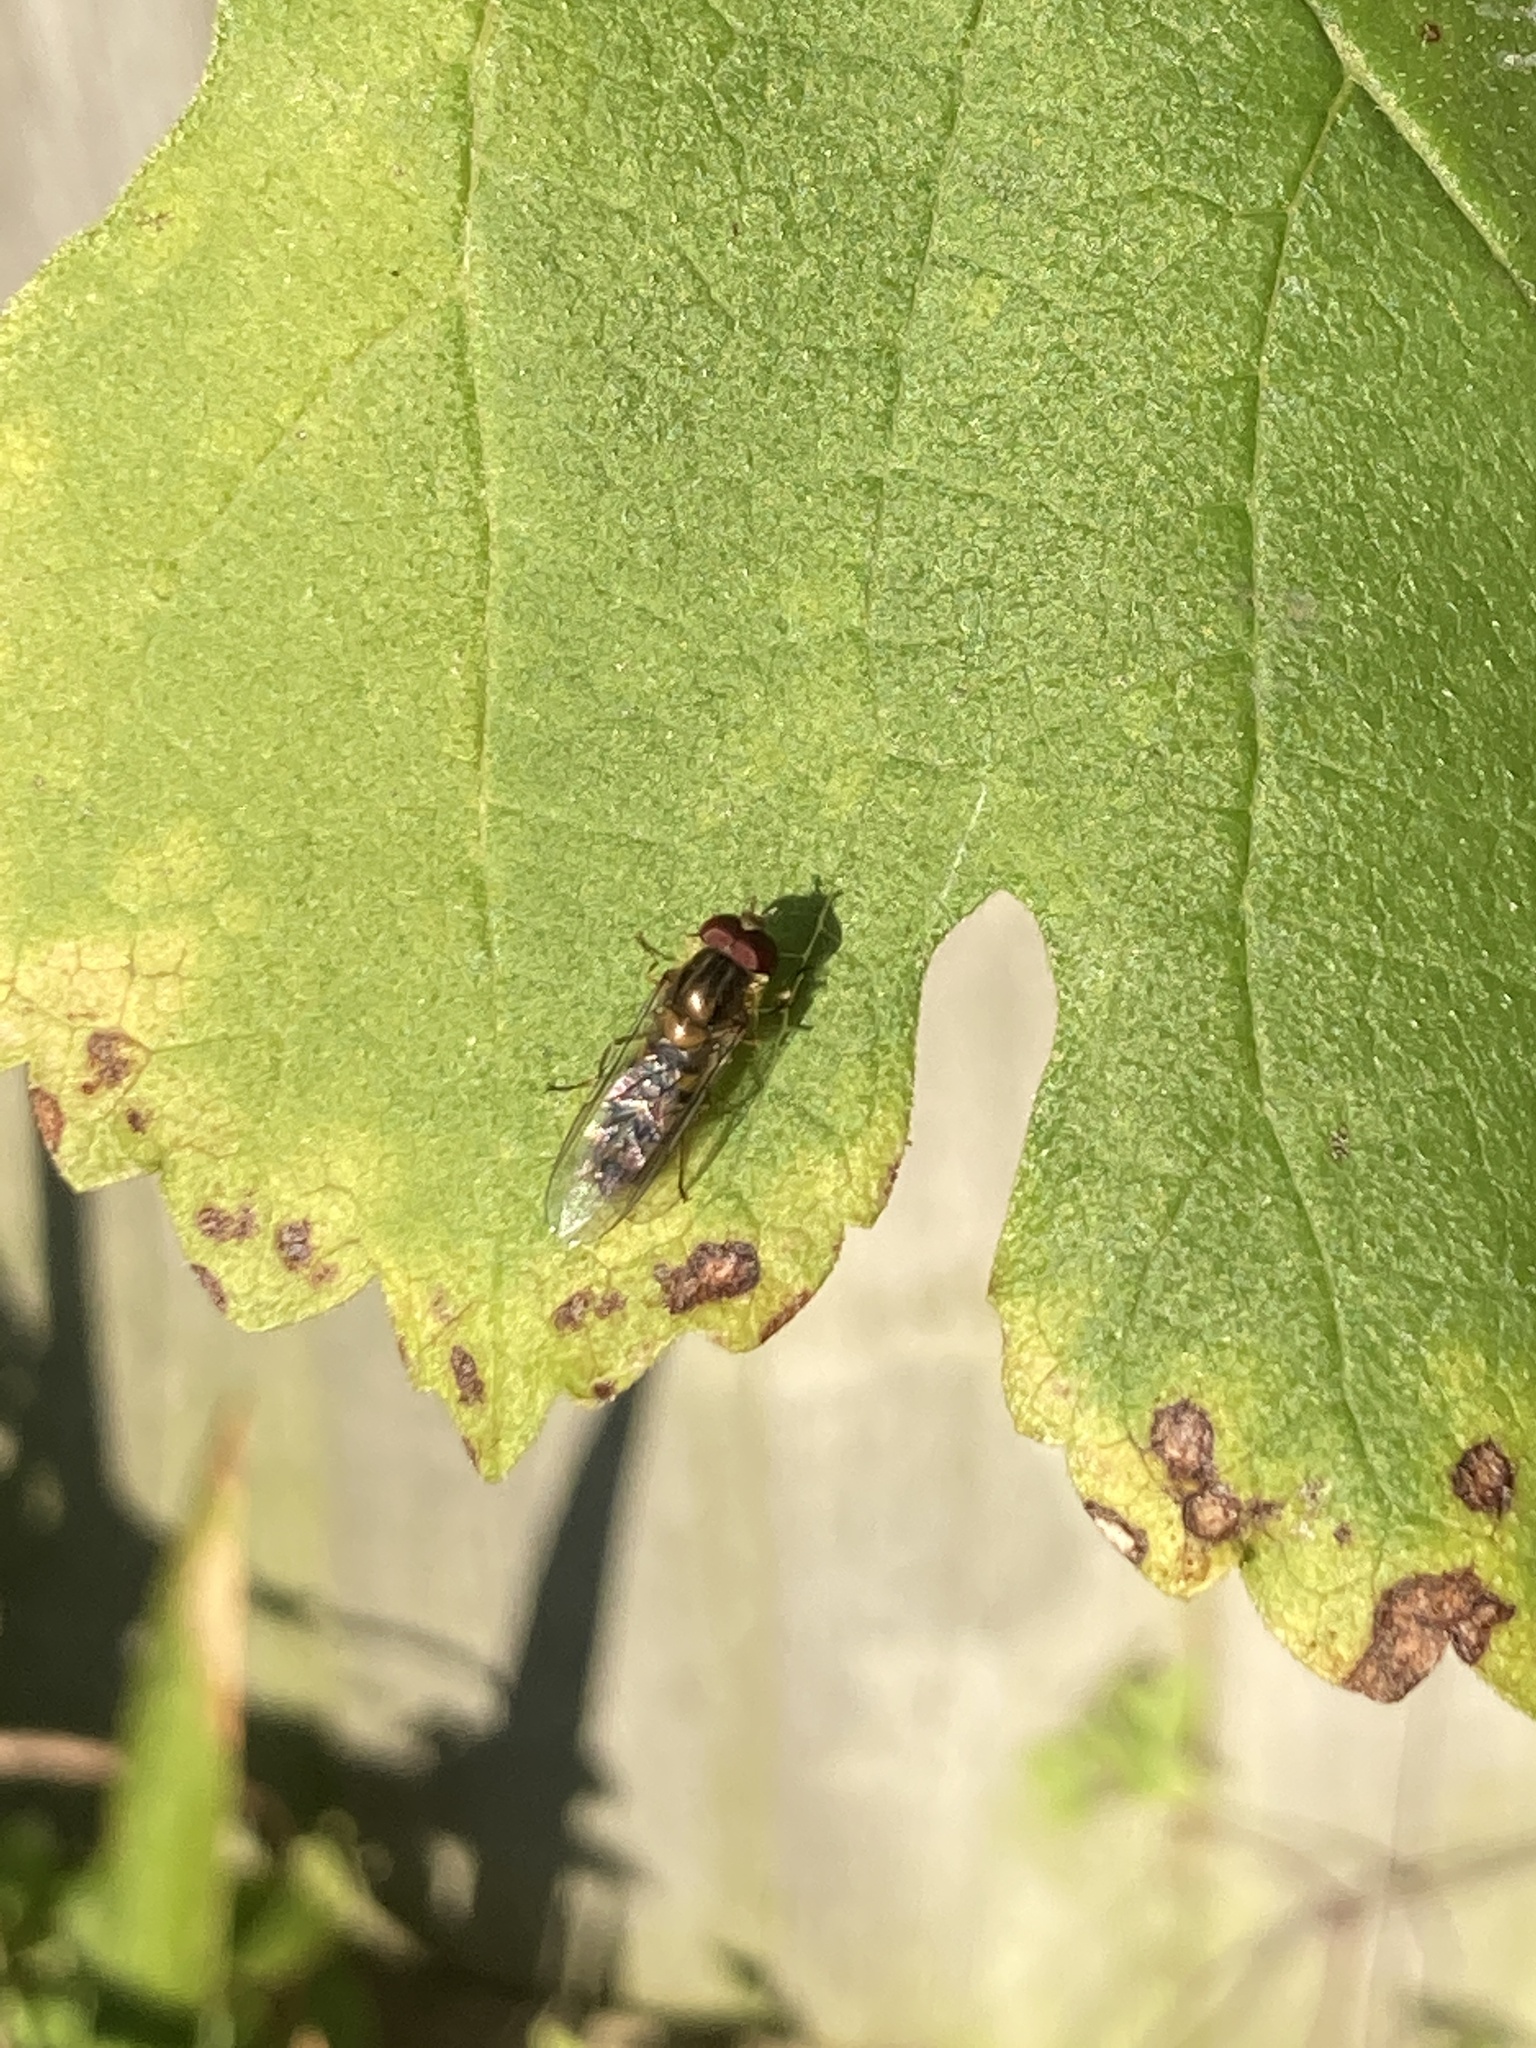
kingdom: Animalia
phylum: Arthropoda
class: Insecta
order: Diptera
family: Syrphidae
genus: Episyrphus
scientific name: Episyrphus balteatus
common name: Marmalade hoverfly
